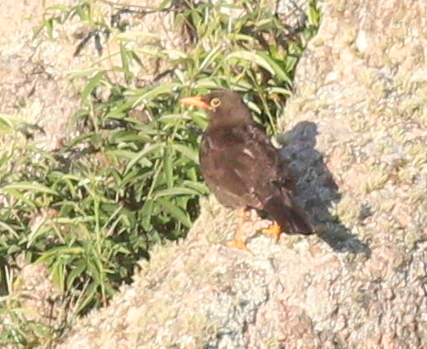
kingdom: Animalia
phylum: Chordata
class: Aves
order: Passeriformes
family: Turdidae
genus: Turdus
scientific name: Turdus chiguanco
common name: Chiguanco thrush
